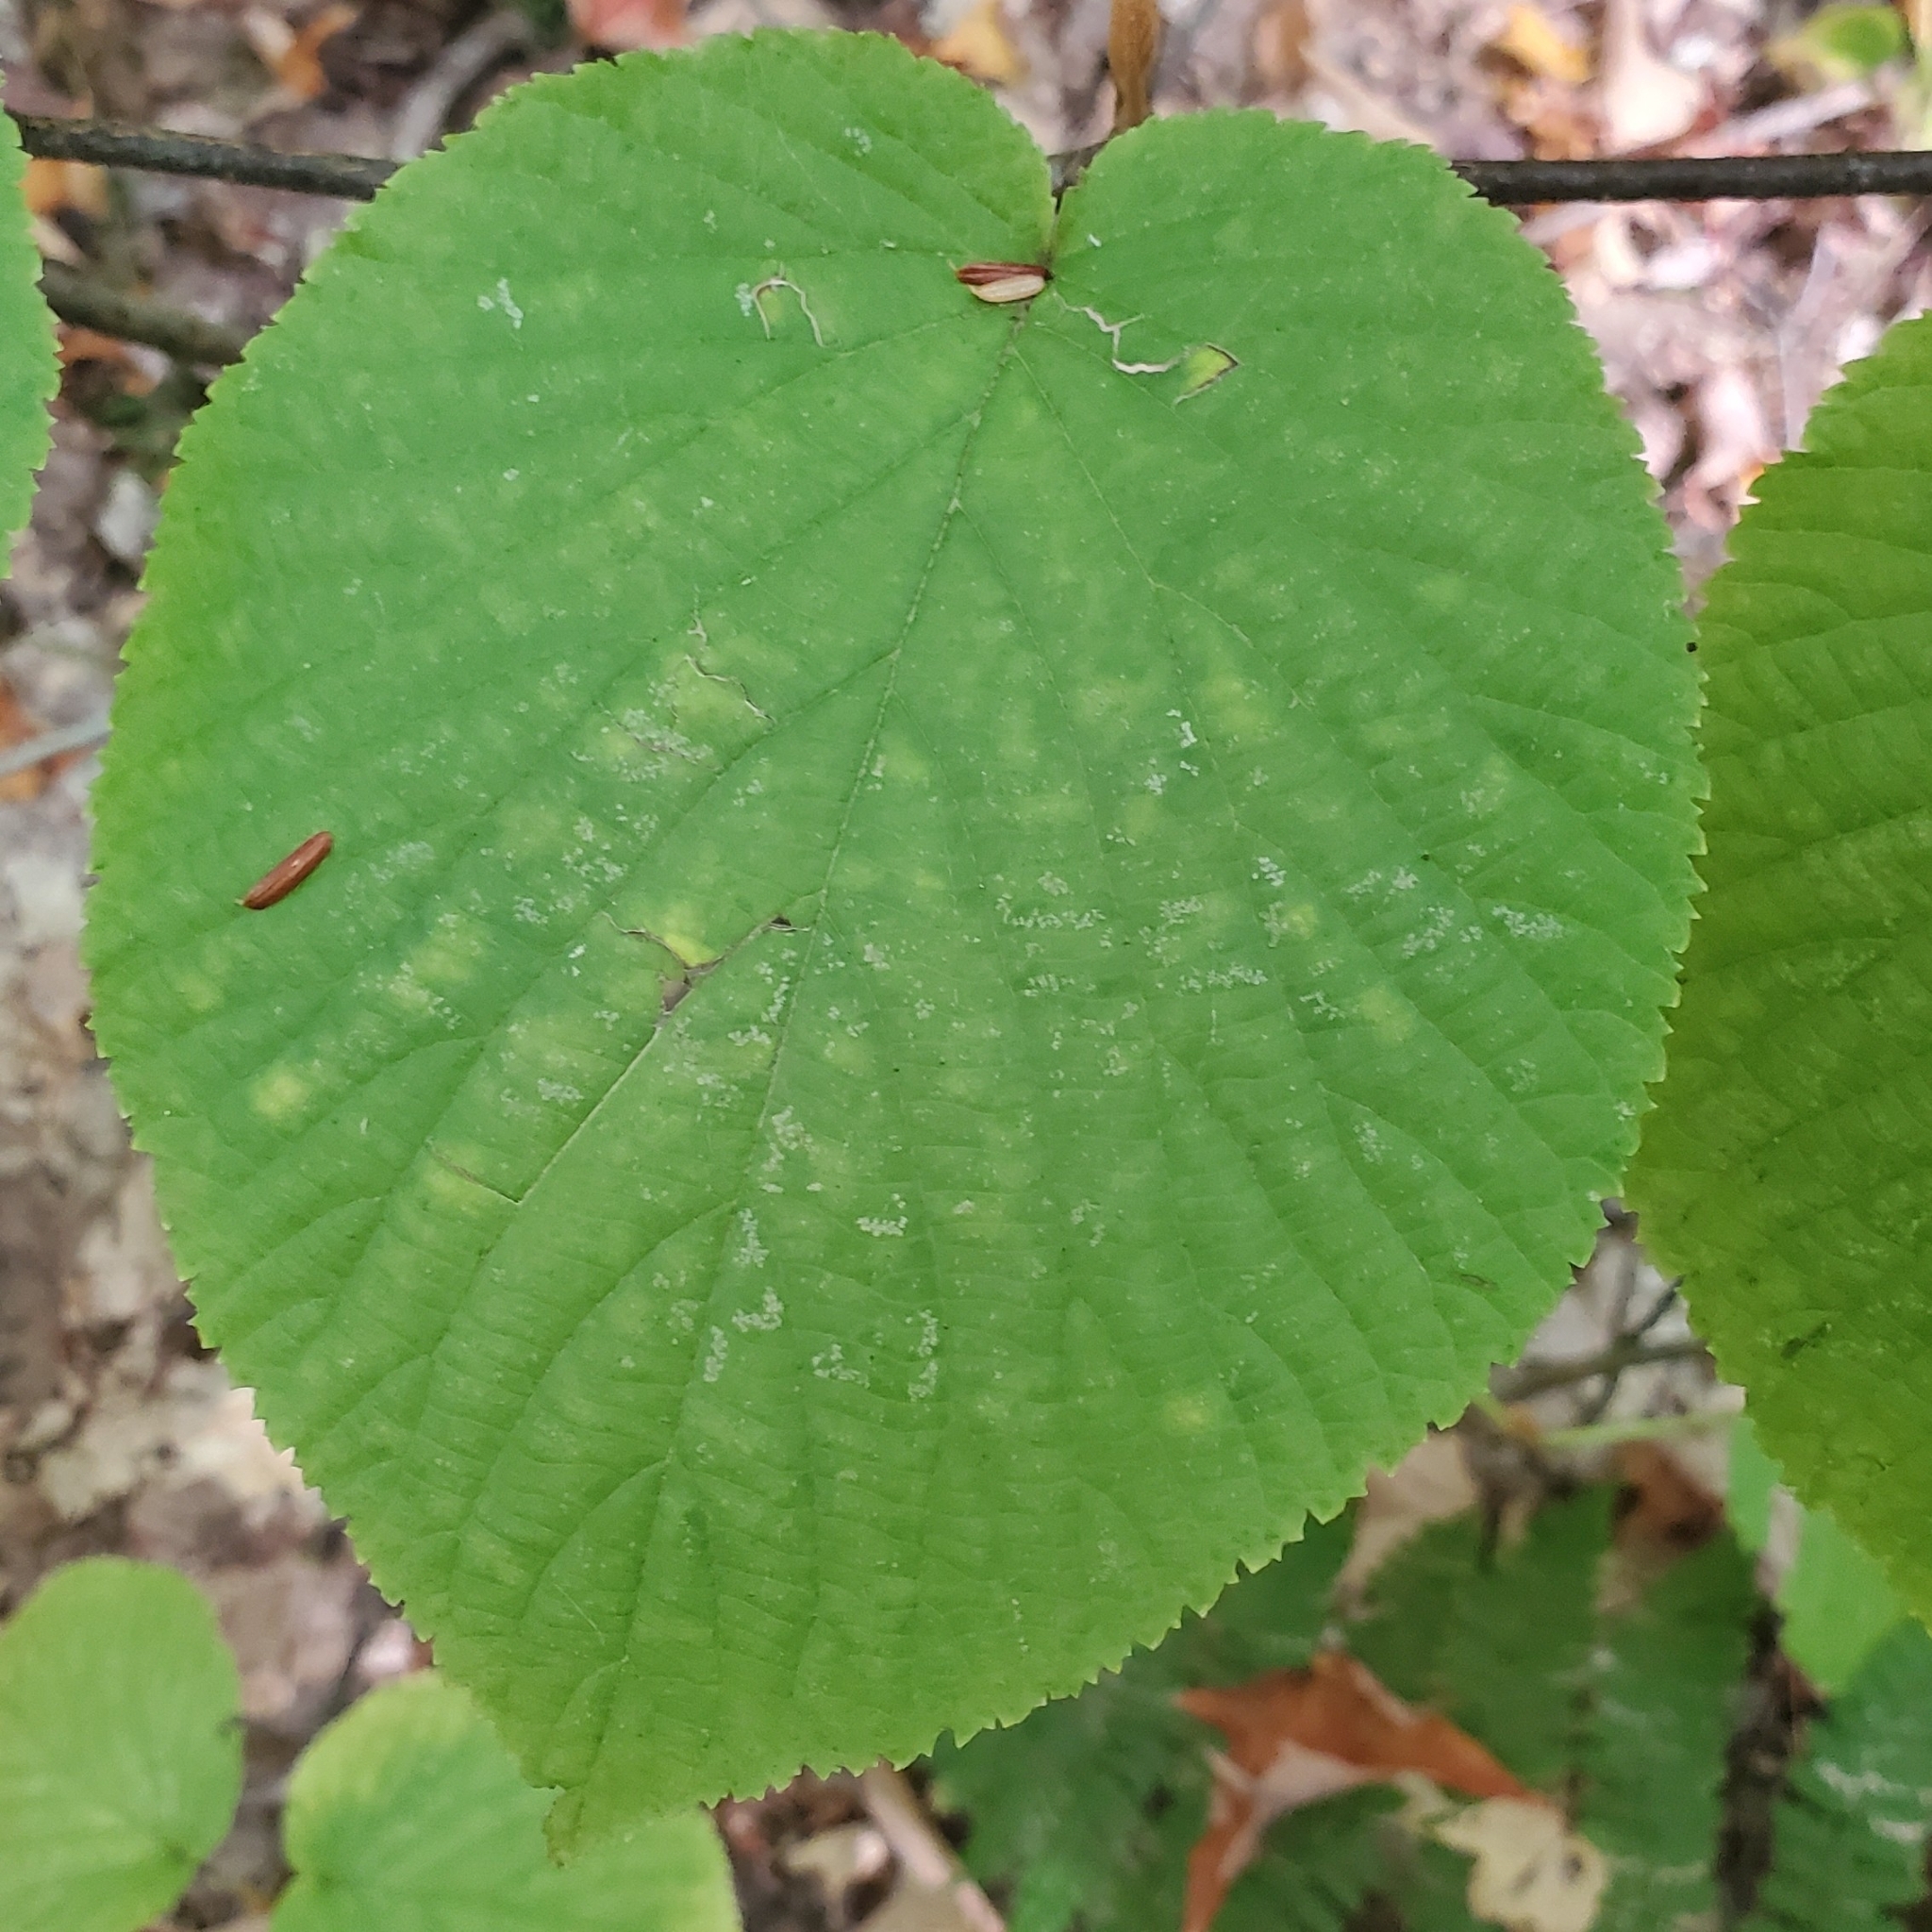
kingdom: Plantae
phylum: Tracheophyta
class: Magnoliopsida
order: Dipsacales
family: Viburnaceae
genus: Viburnum
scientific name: Viburnum lantanoides
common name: Hobblebush
